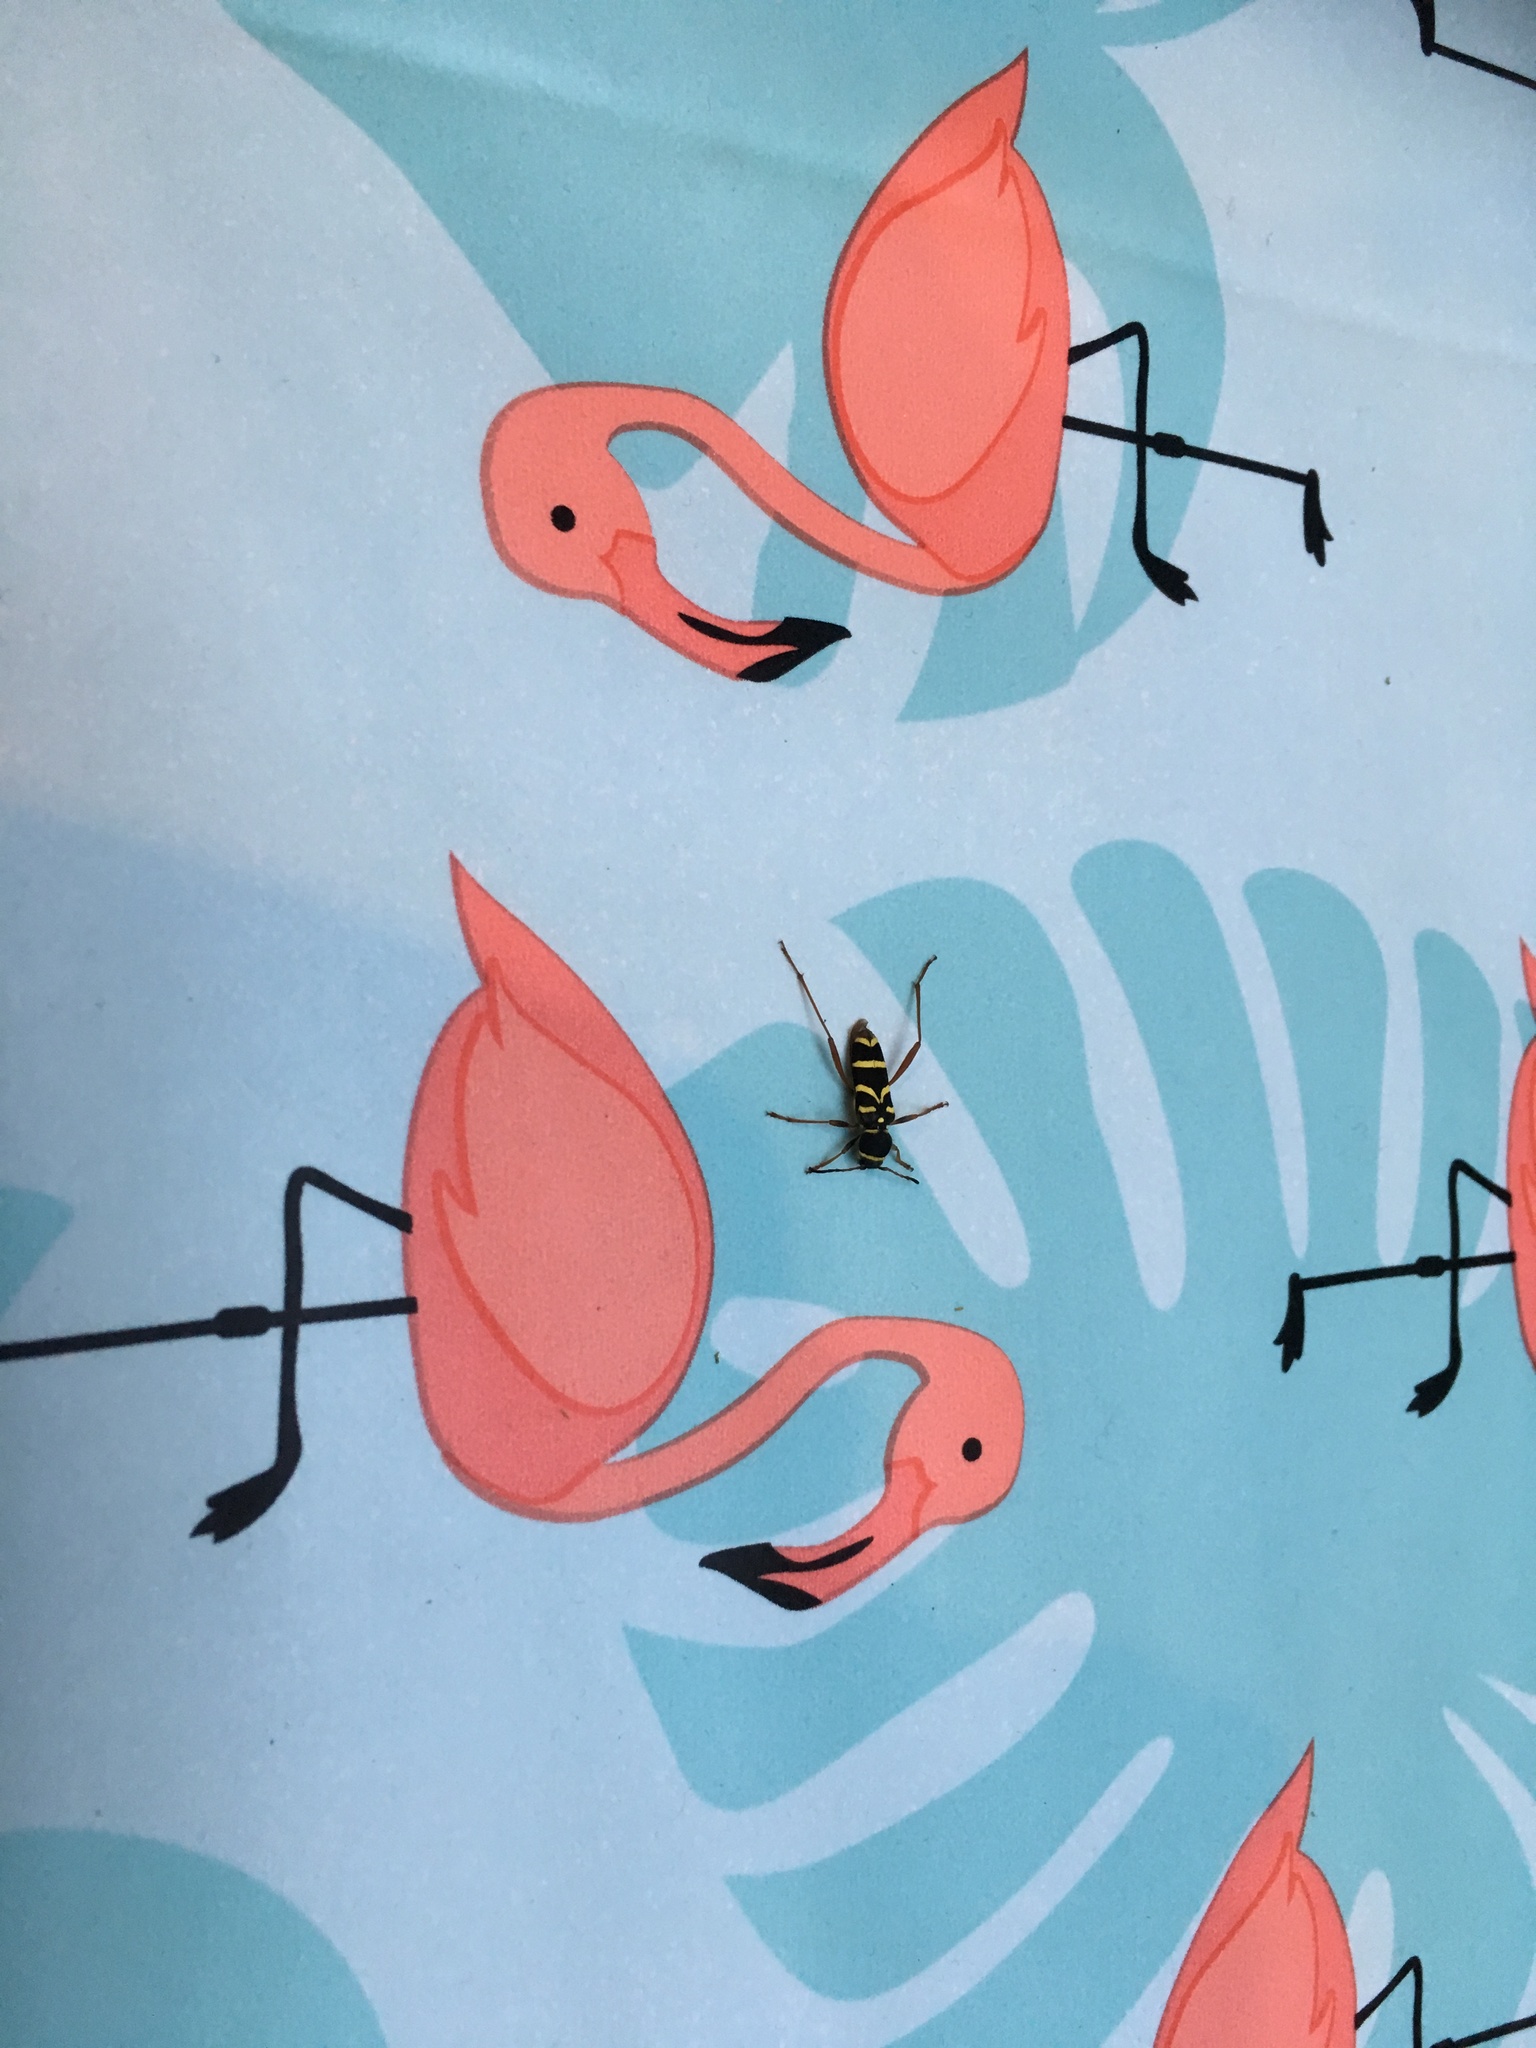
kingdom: Animalia
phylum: Arthropoda
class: Insecta
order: Coleoptera
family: Cerambycidae
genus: Clytus
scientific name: Clytus arietis
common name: Wasp beetle
